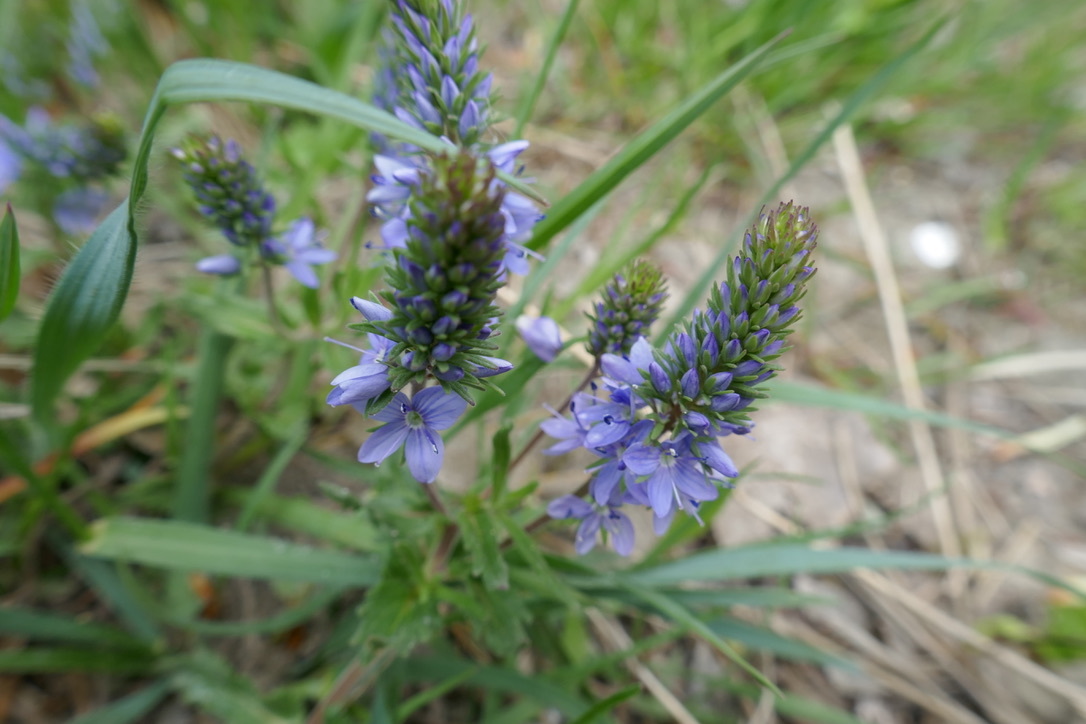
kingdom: Plantae
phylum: Tracheophyta
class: Magnoliopsida
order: Lamiales
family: Plantaginaceae
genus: Veronica
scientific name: Veronica prostrata
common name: Prostrate speedwell
